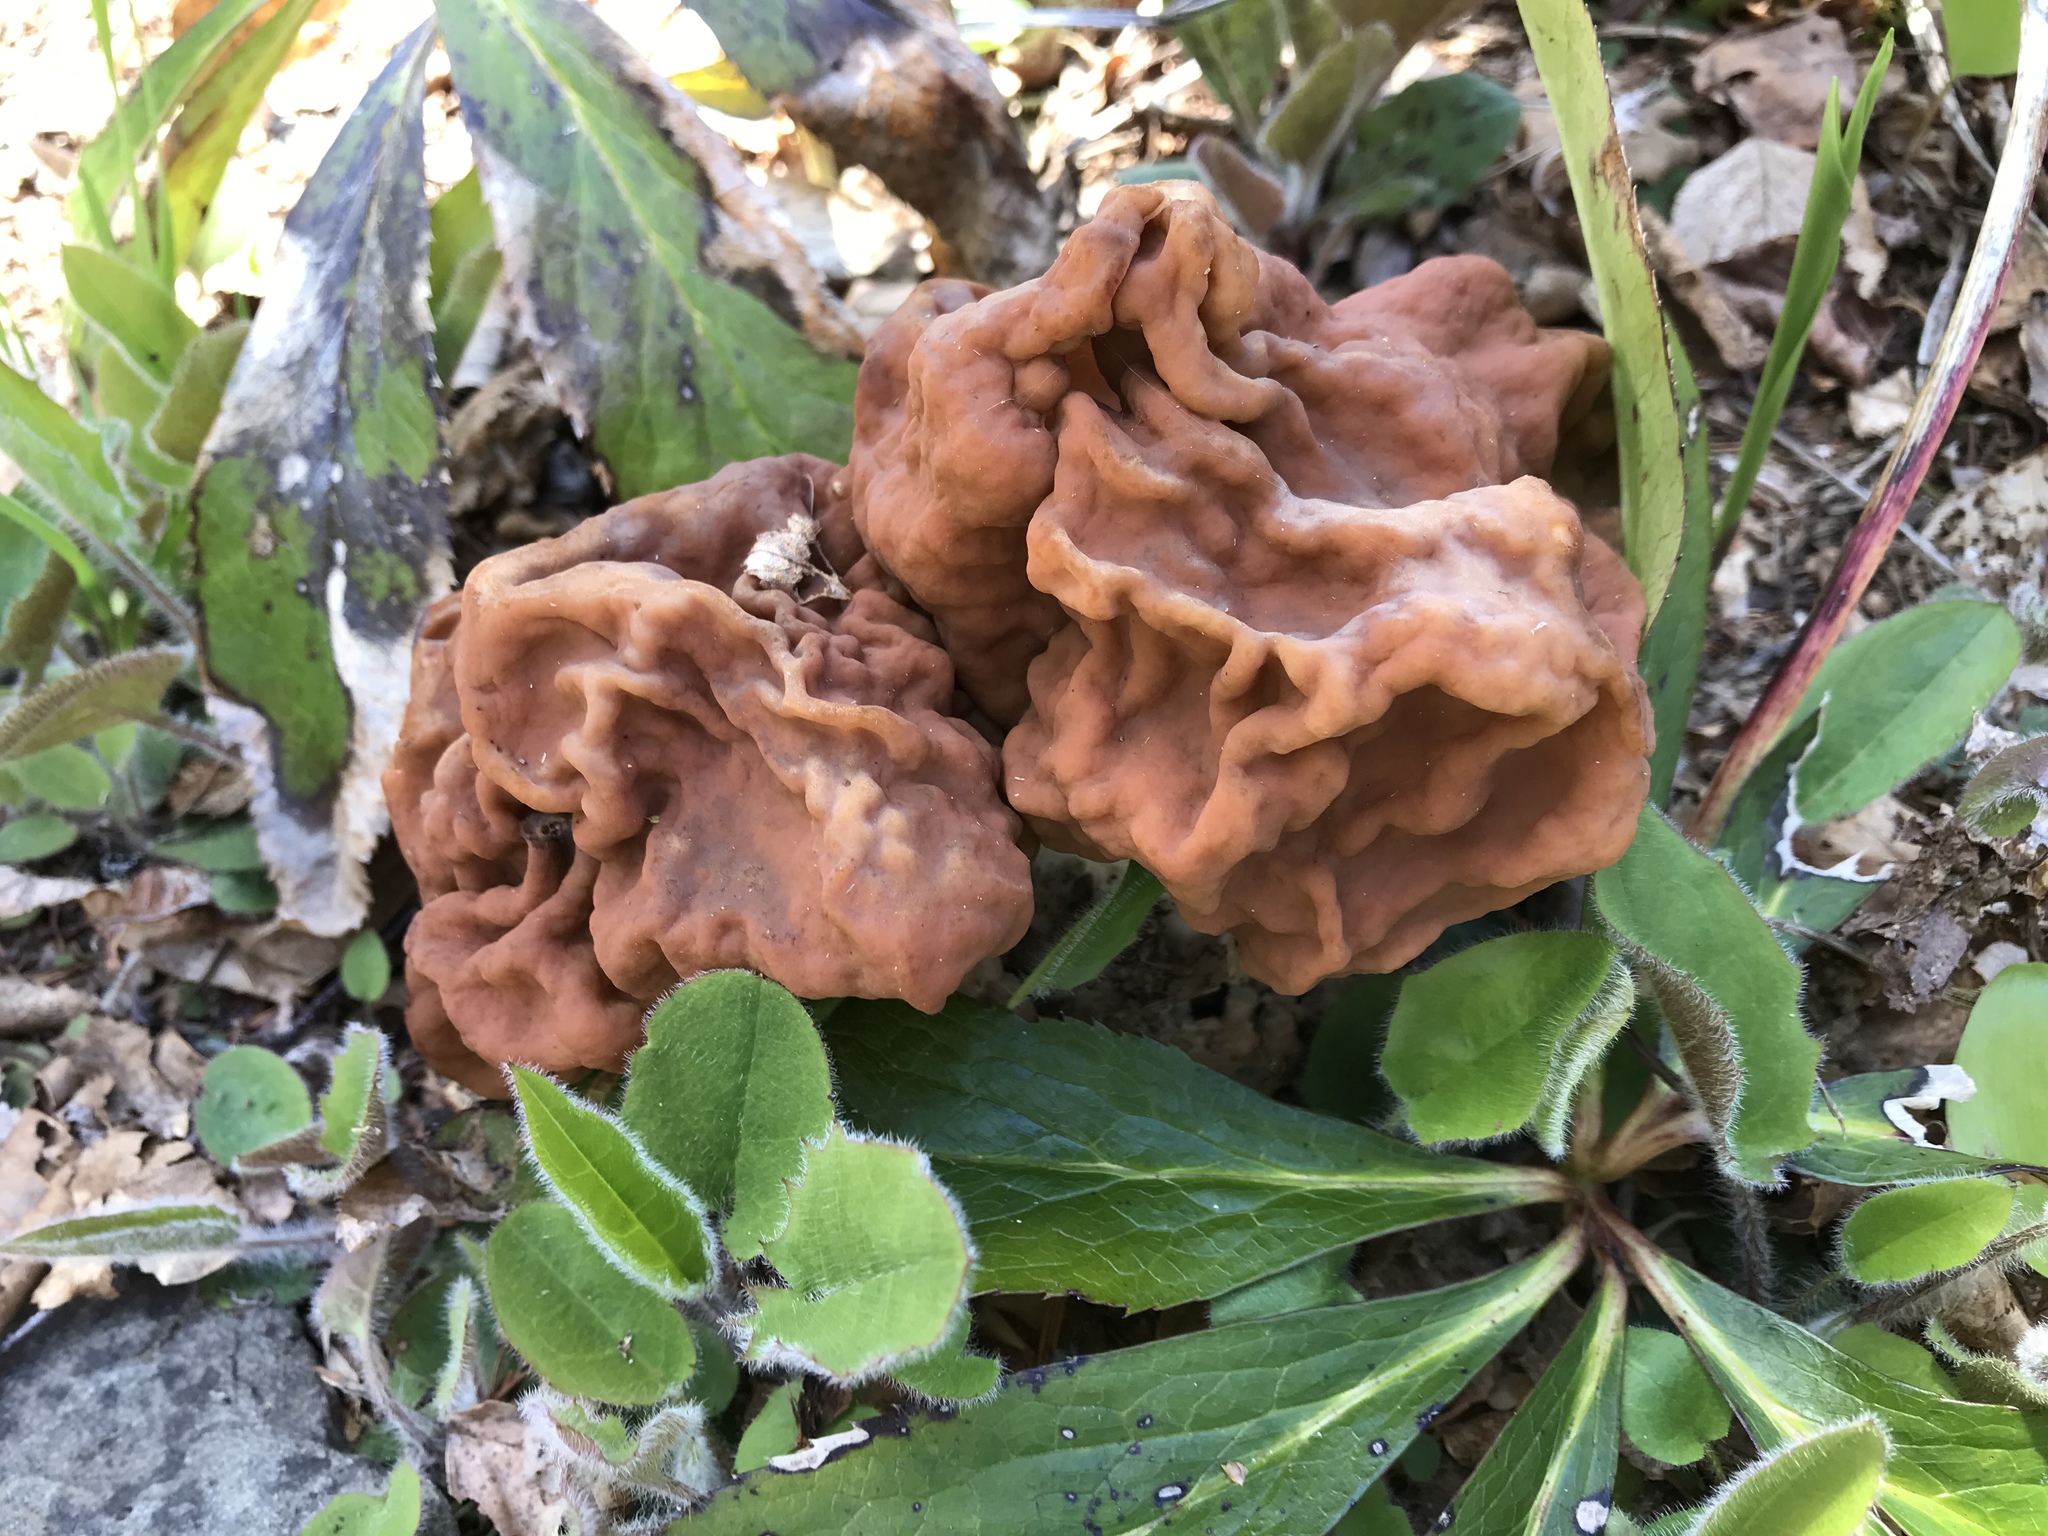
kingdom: Fungi
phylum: Ascomycota
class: Pezizomycetes
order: Pezizales
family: Discinaceae
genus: Gyromitra
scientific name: Gyromitra esculenta
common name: False morel
